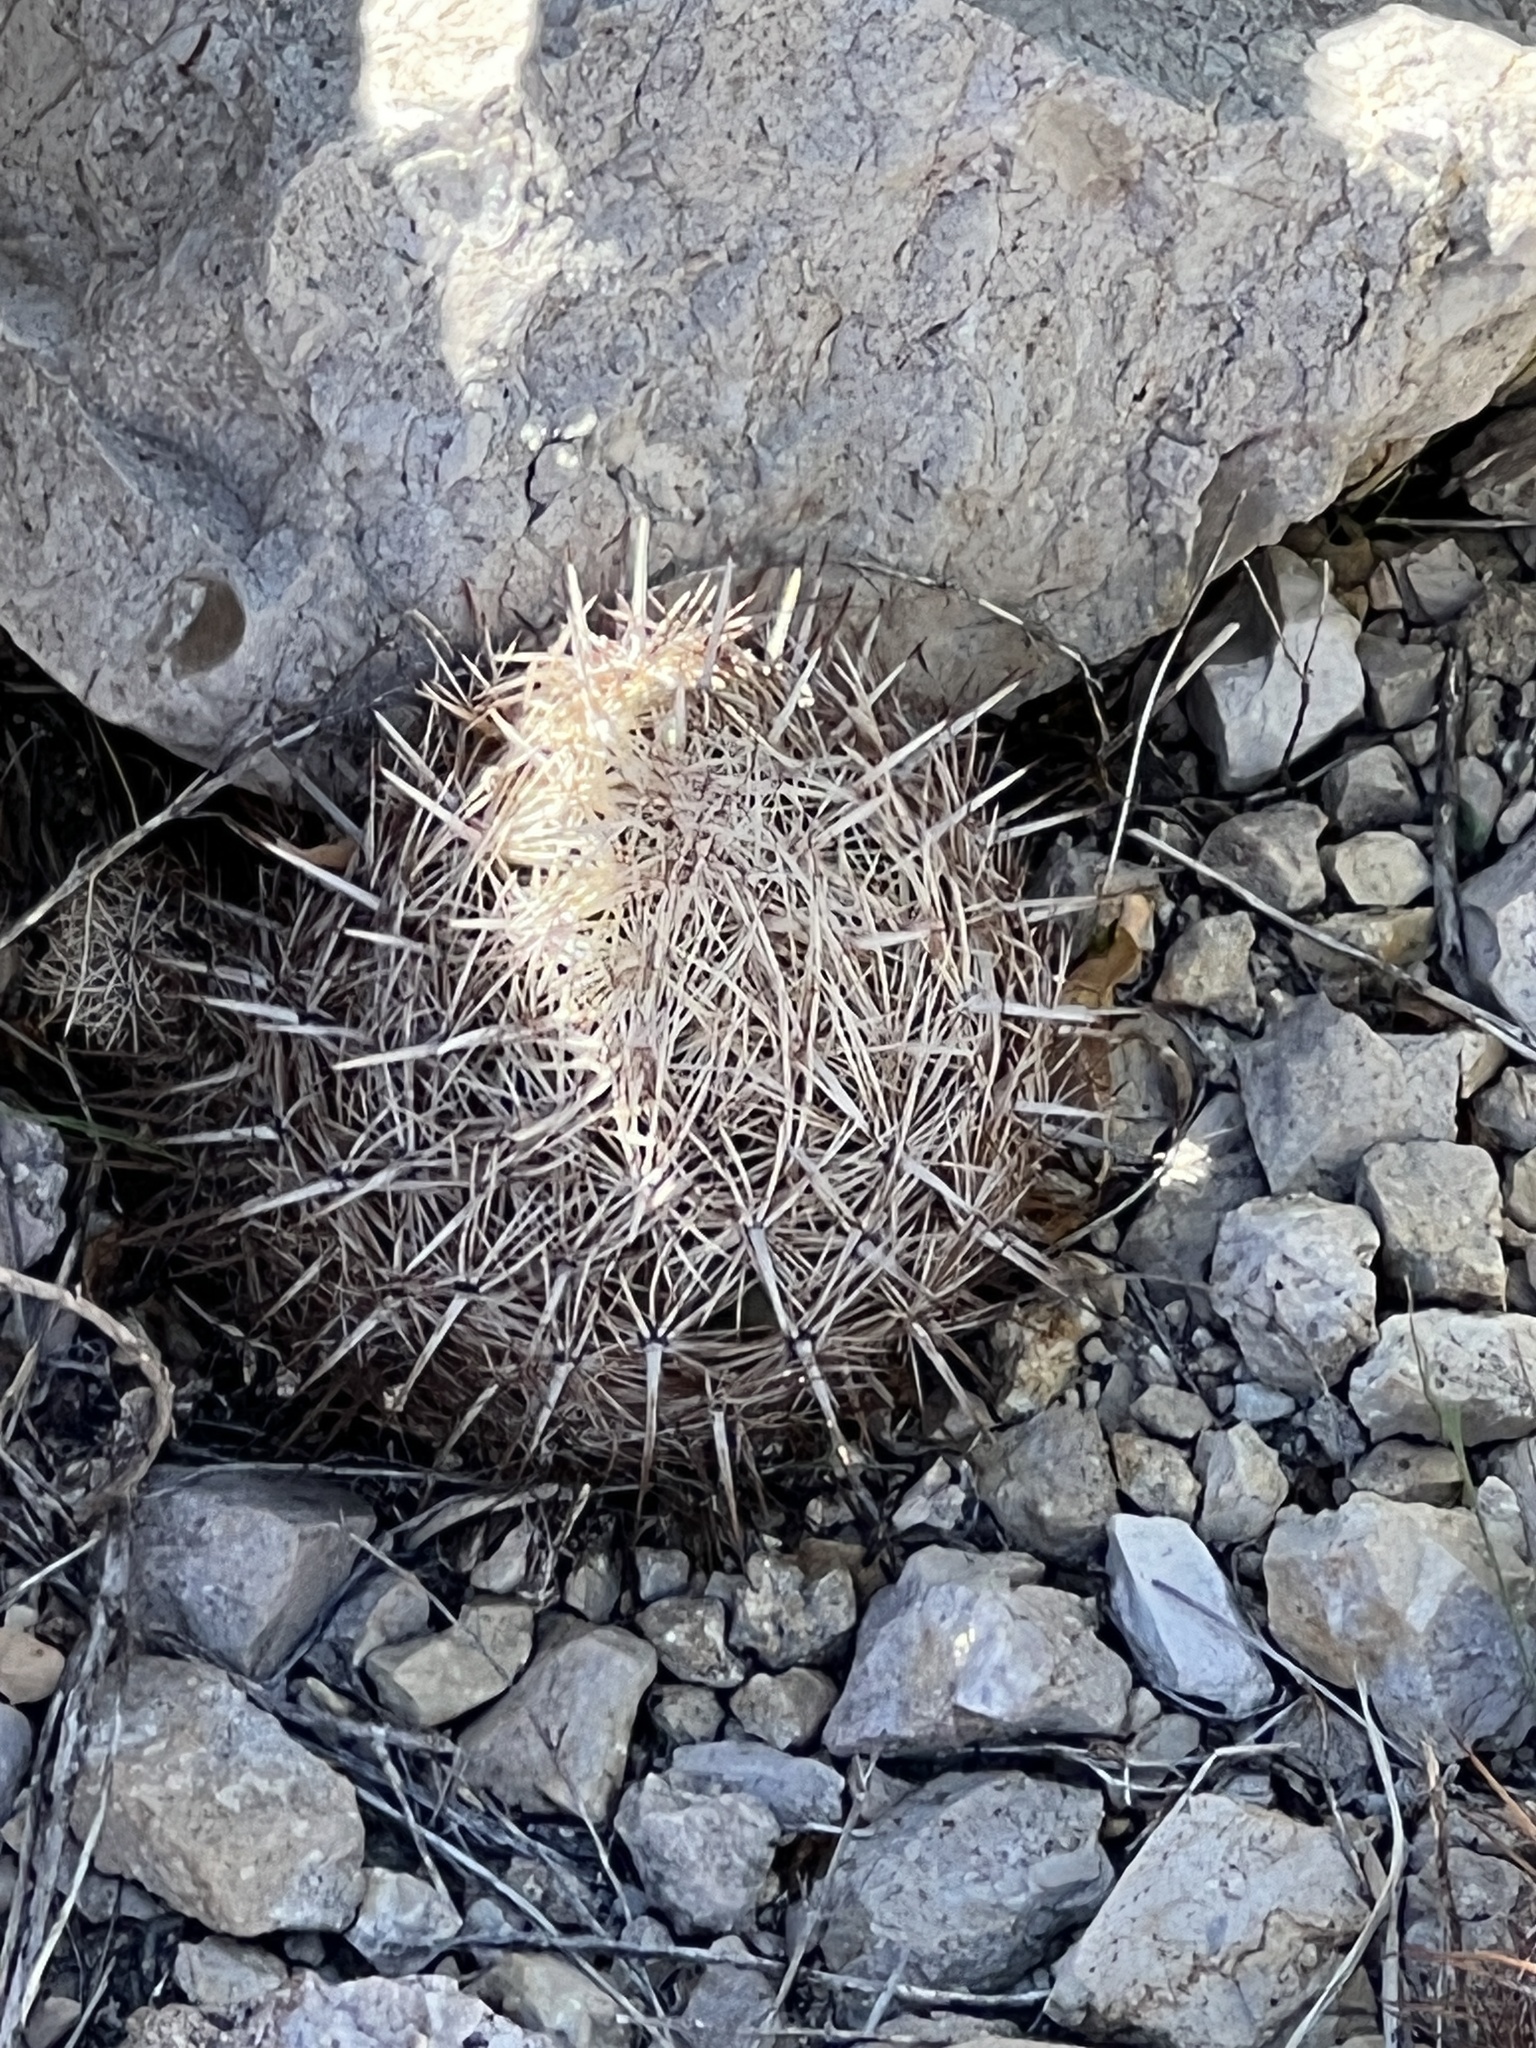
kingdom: Plantae
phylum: Tracheophyta
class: Magnoliopsida
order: Caryophyllales
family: Cactaceae
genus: Coryphantha
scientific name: Coryphantha echinus
